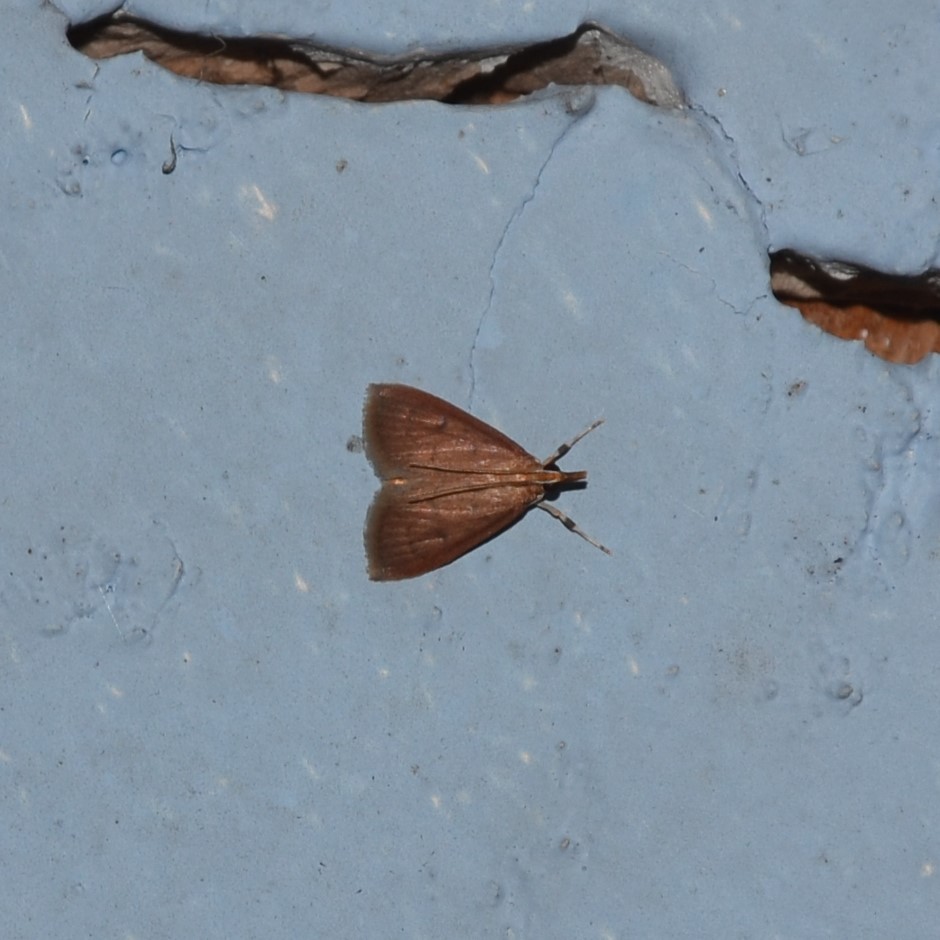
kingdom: Animalia
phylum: Arthropoda
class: Insecta
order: Lepidoptera
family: Crambidae
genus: Oenobotys
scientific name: Oenobotys vinotinctalis
